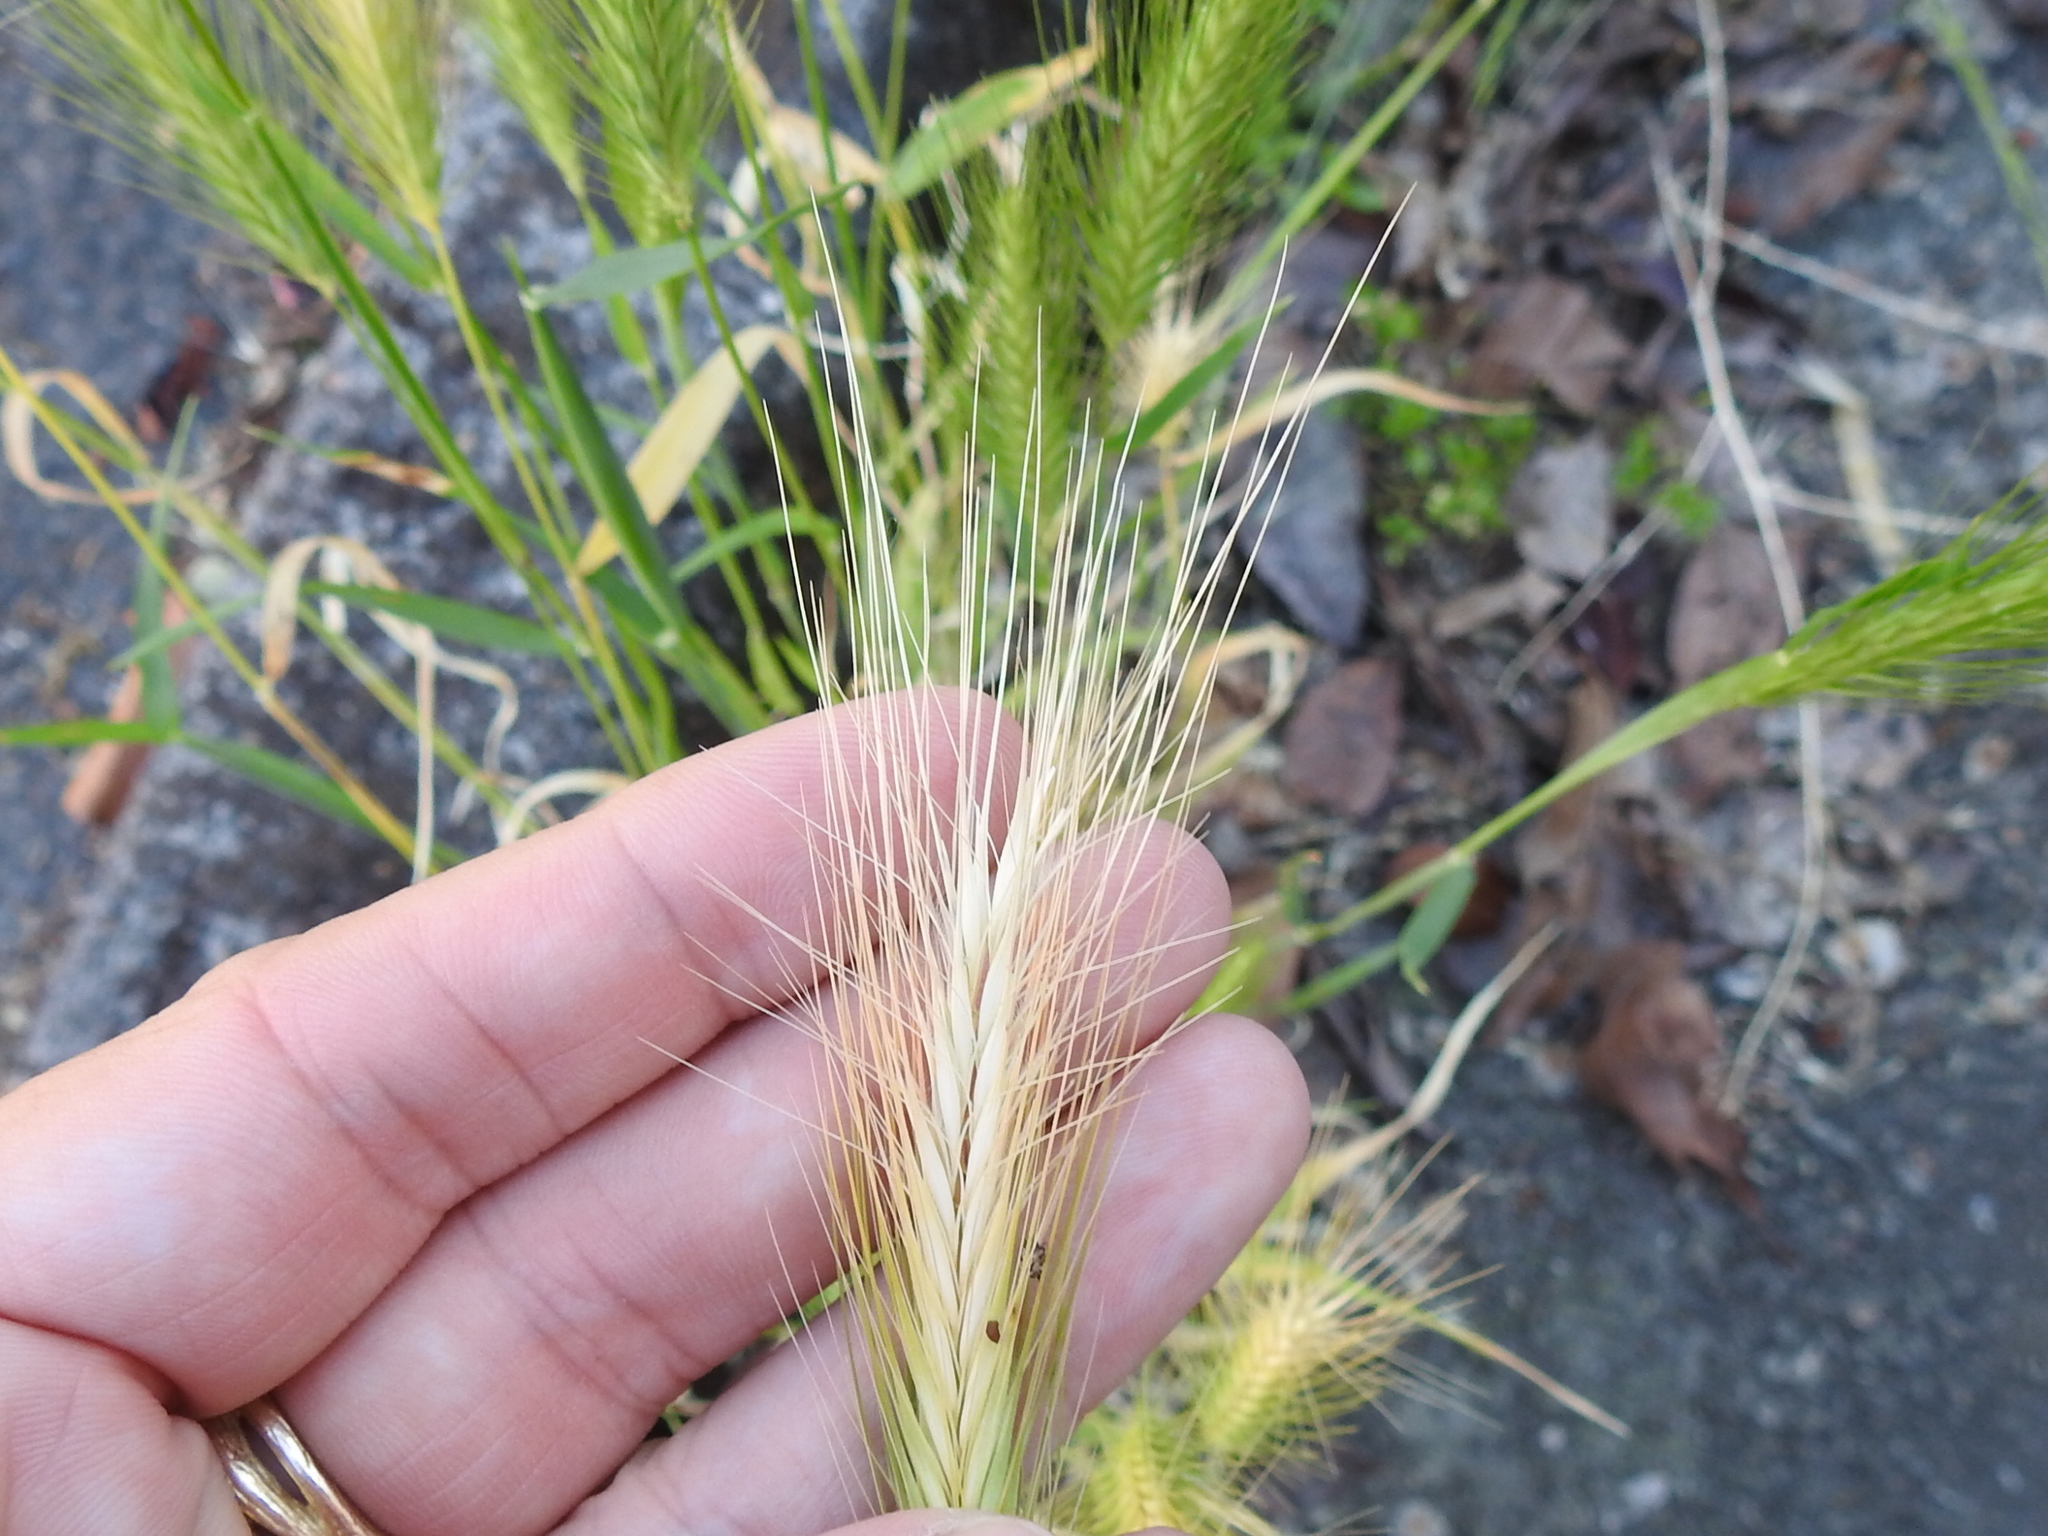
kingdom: Plantae
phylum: Tracheophyta
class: Liliopsida
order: Poales
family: Poaceae
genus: Hordeum
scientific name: Hordeum murinum
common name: Wall barley
